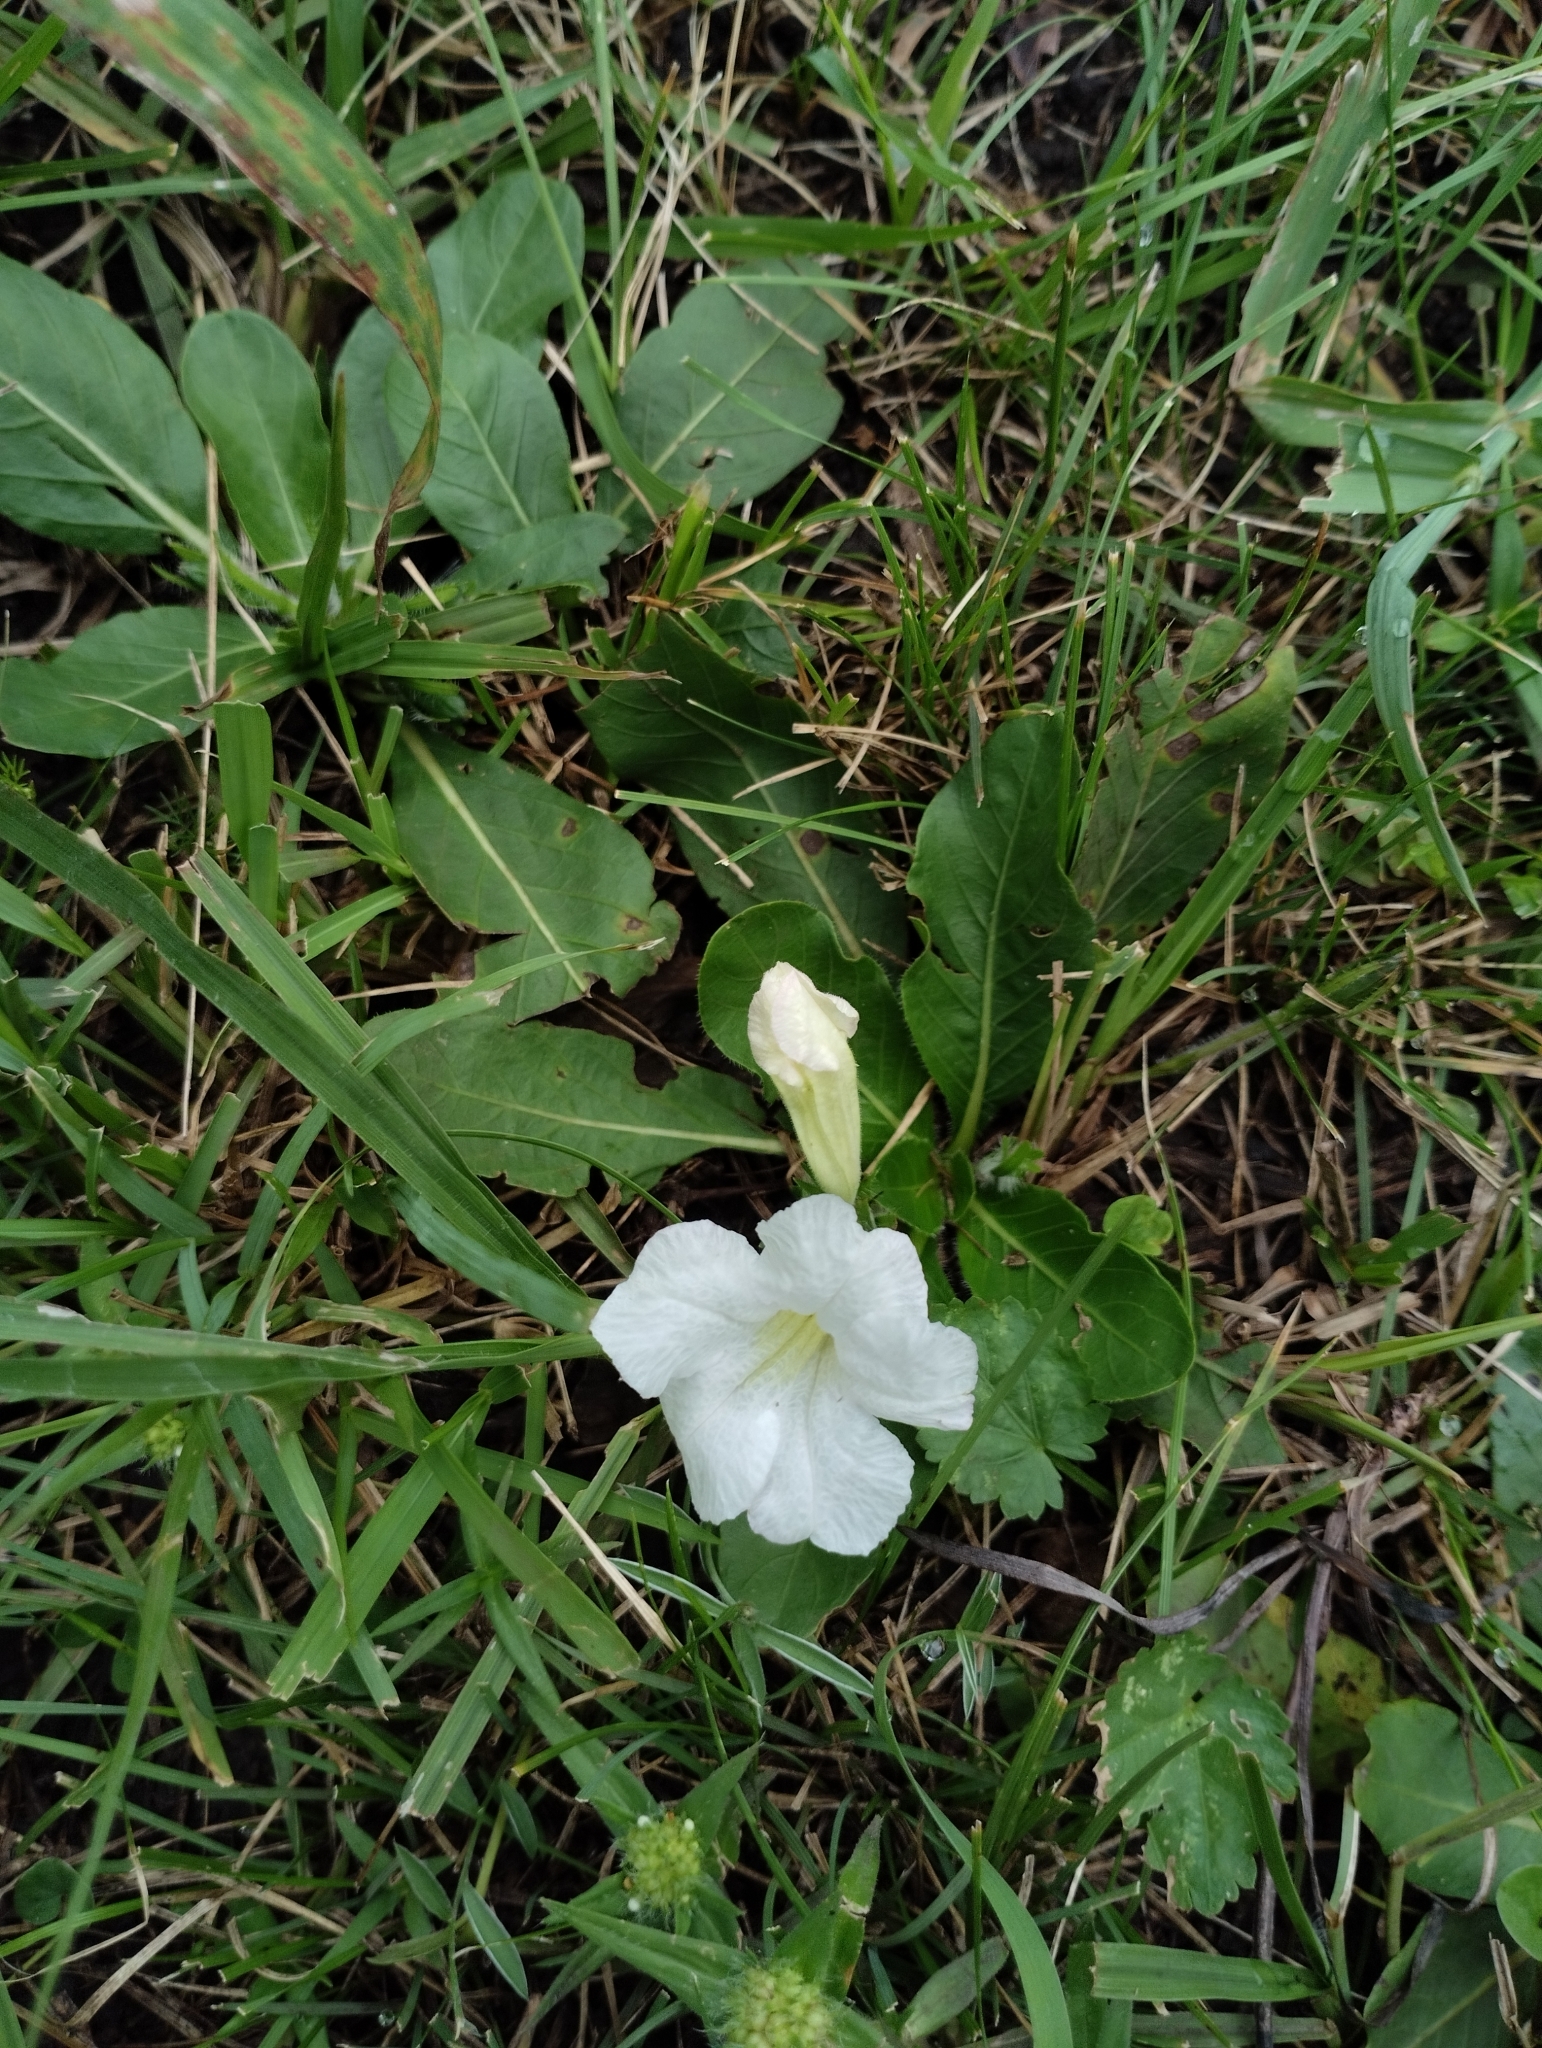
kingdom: Plantae
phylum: Tracheophyta
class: Magnoliopsida
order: Lamiales
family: Acanthaceae
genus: Ruellia
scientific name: Ruellia morongii
